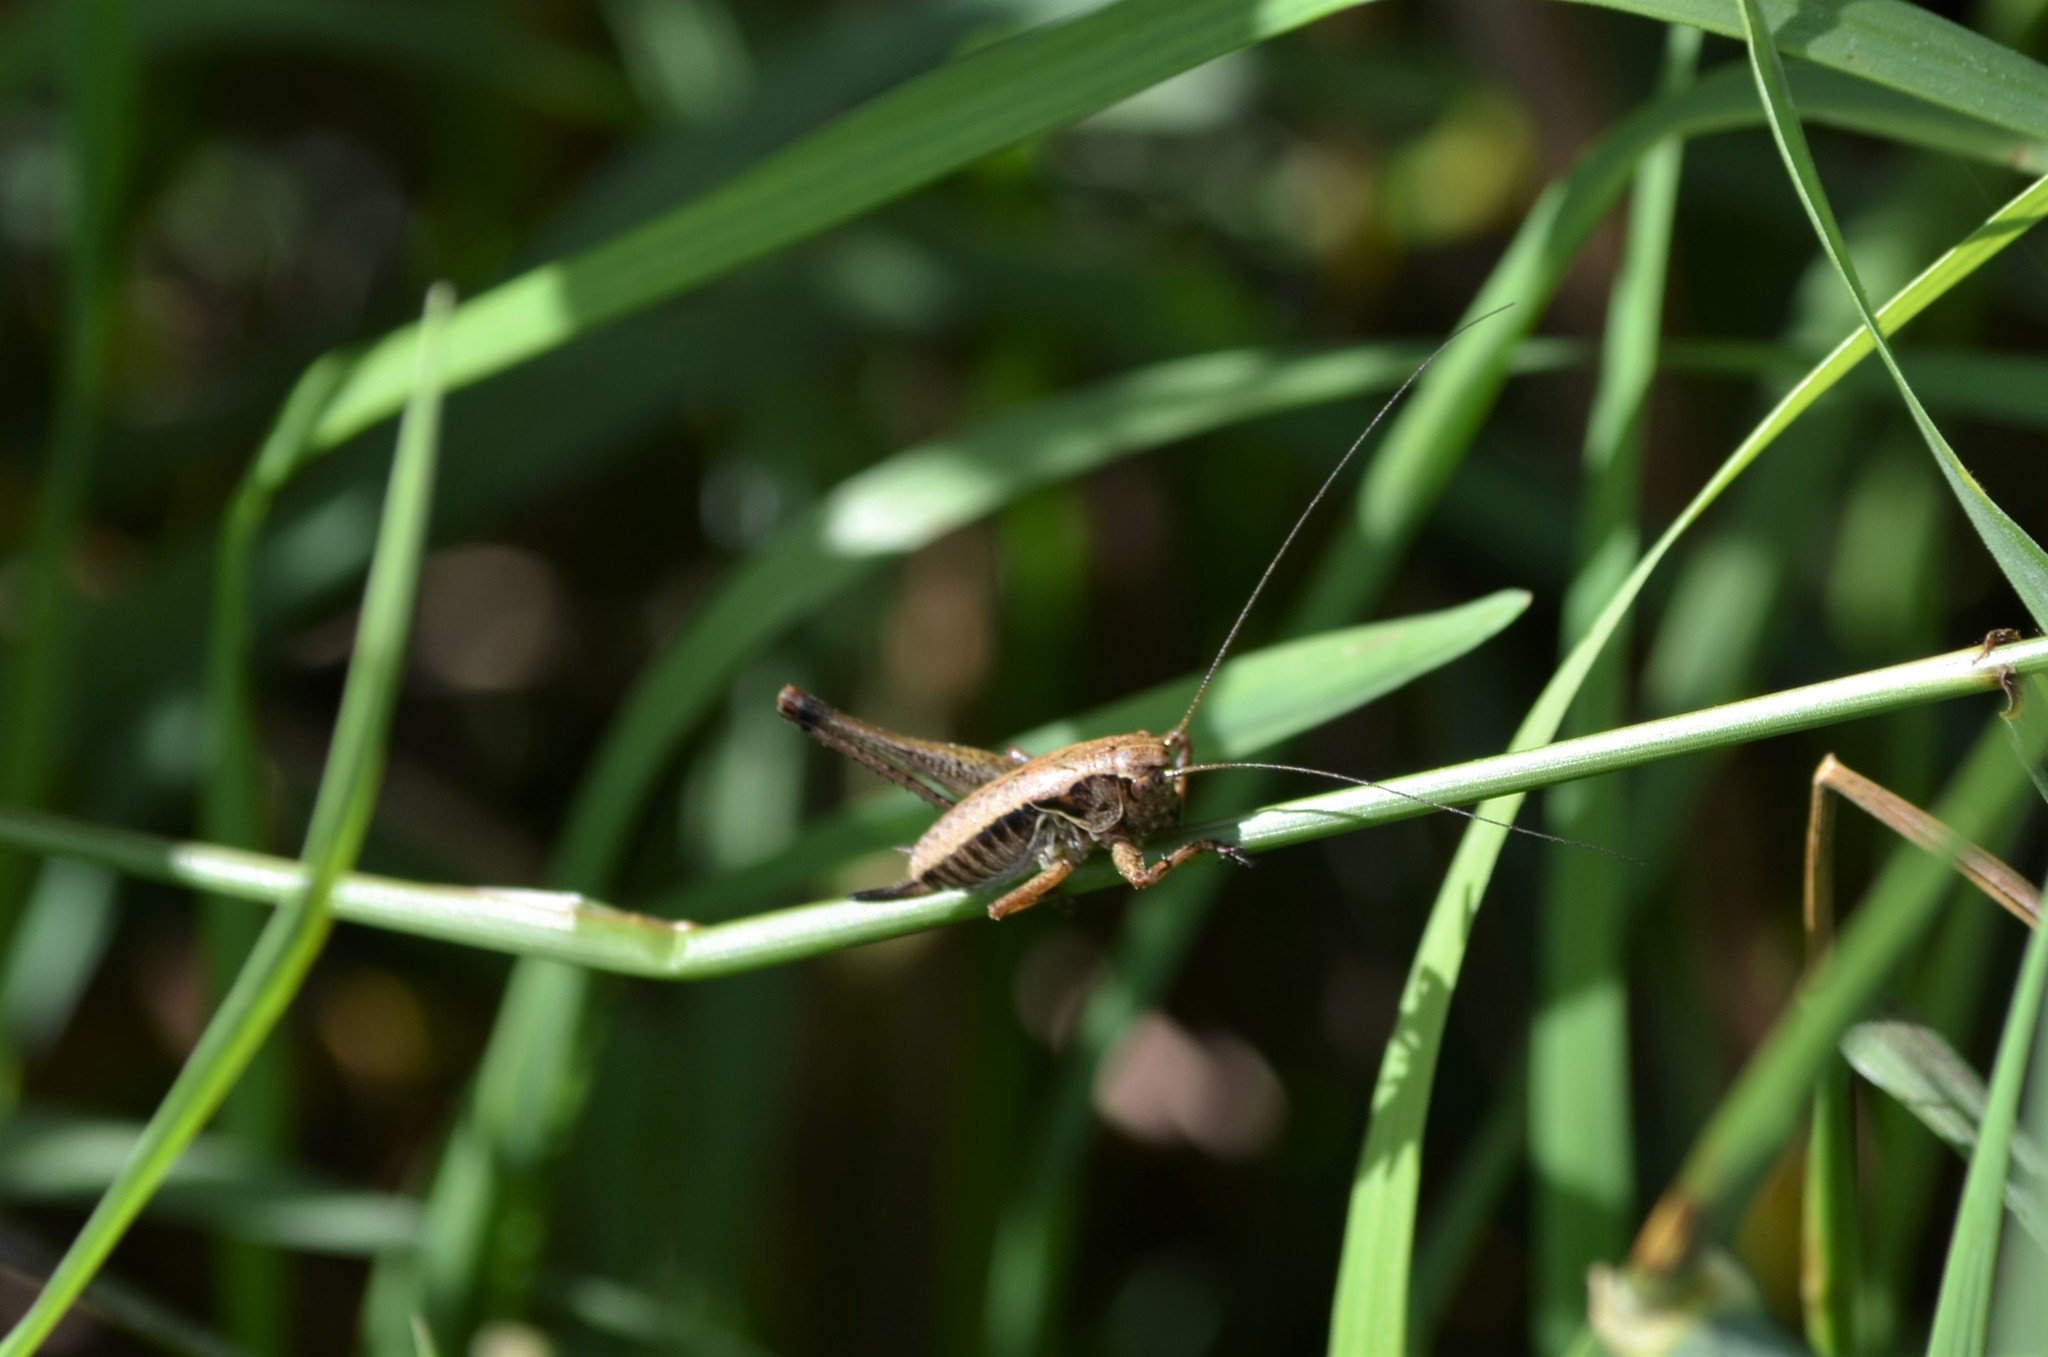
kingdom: Animalia
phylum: Arthropoda
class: Insecta
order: Orthoptera
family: Tettigoniidae
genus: Pholidoptera
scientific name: Pholidoptera griseoaptera
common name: Dark bush-cricket
